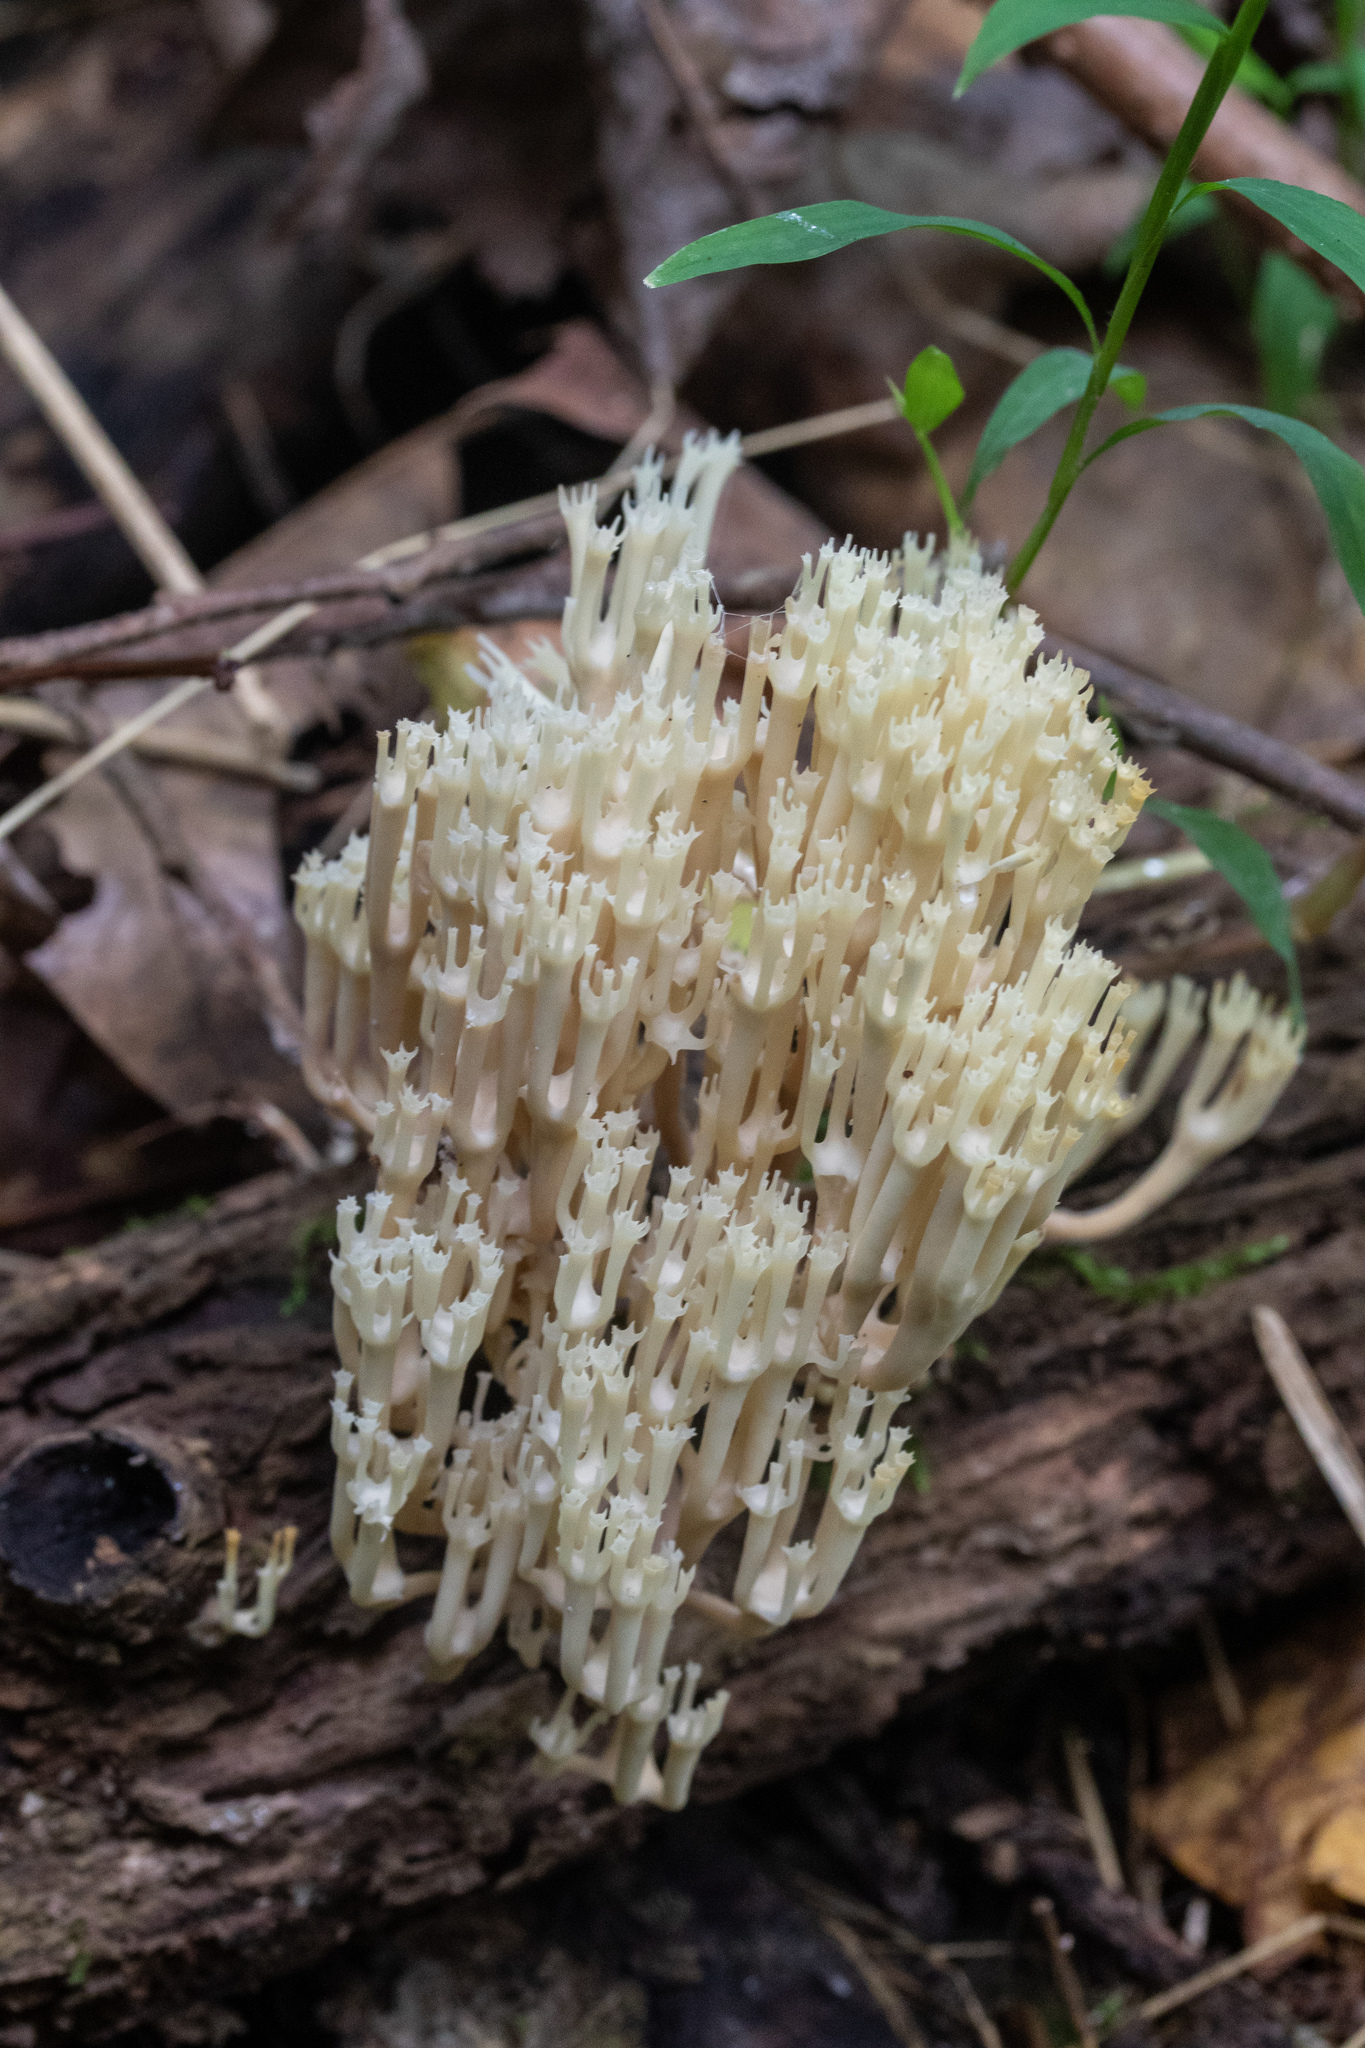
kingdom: Fungi
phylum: Basidiomycota
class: Agaricomycetes
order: Russulales
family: Auriscalpiaceae
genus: Artomyces
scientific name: Artomyces pyxidatus
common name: Crown-tipped coral fungus
